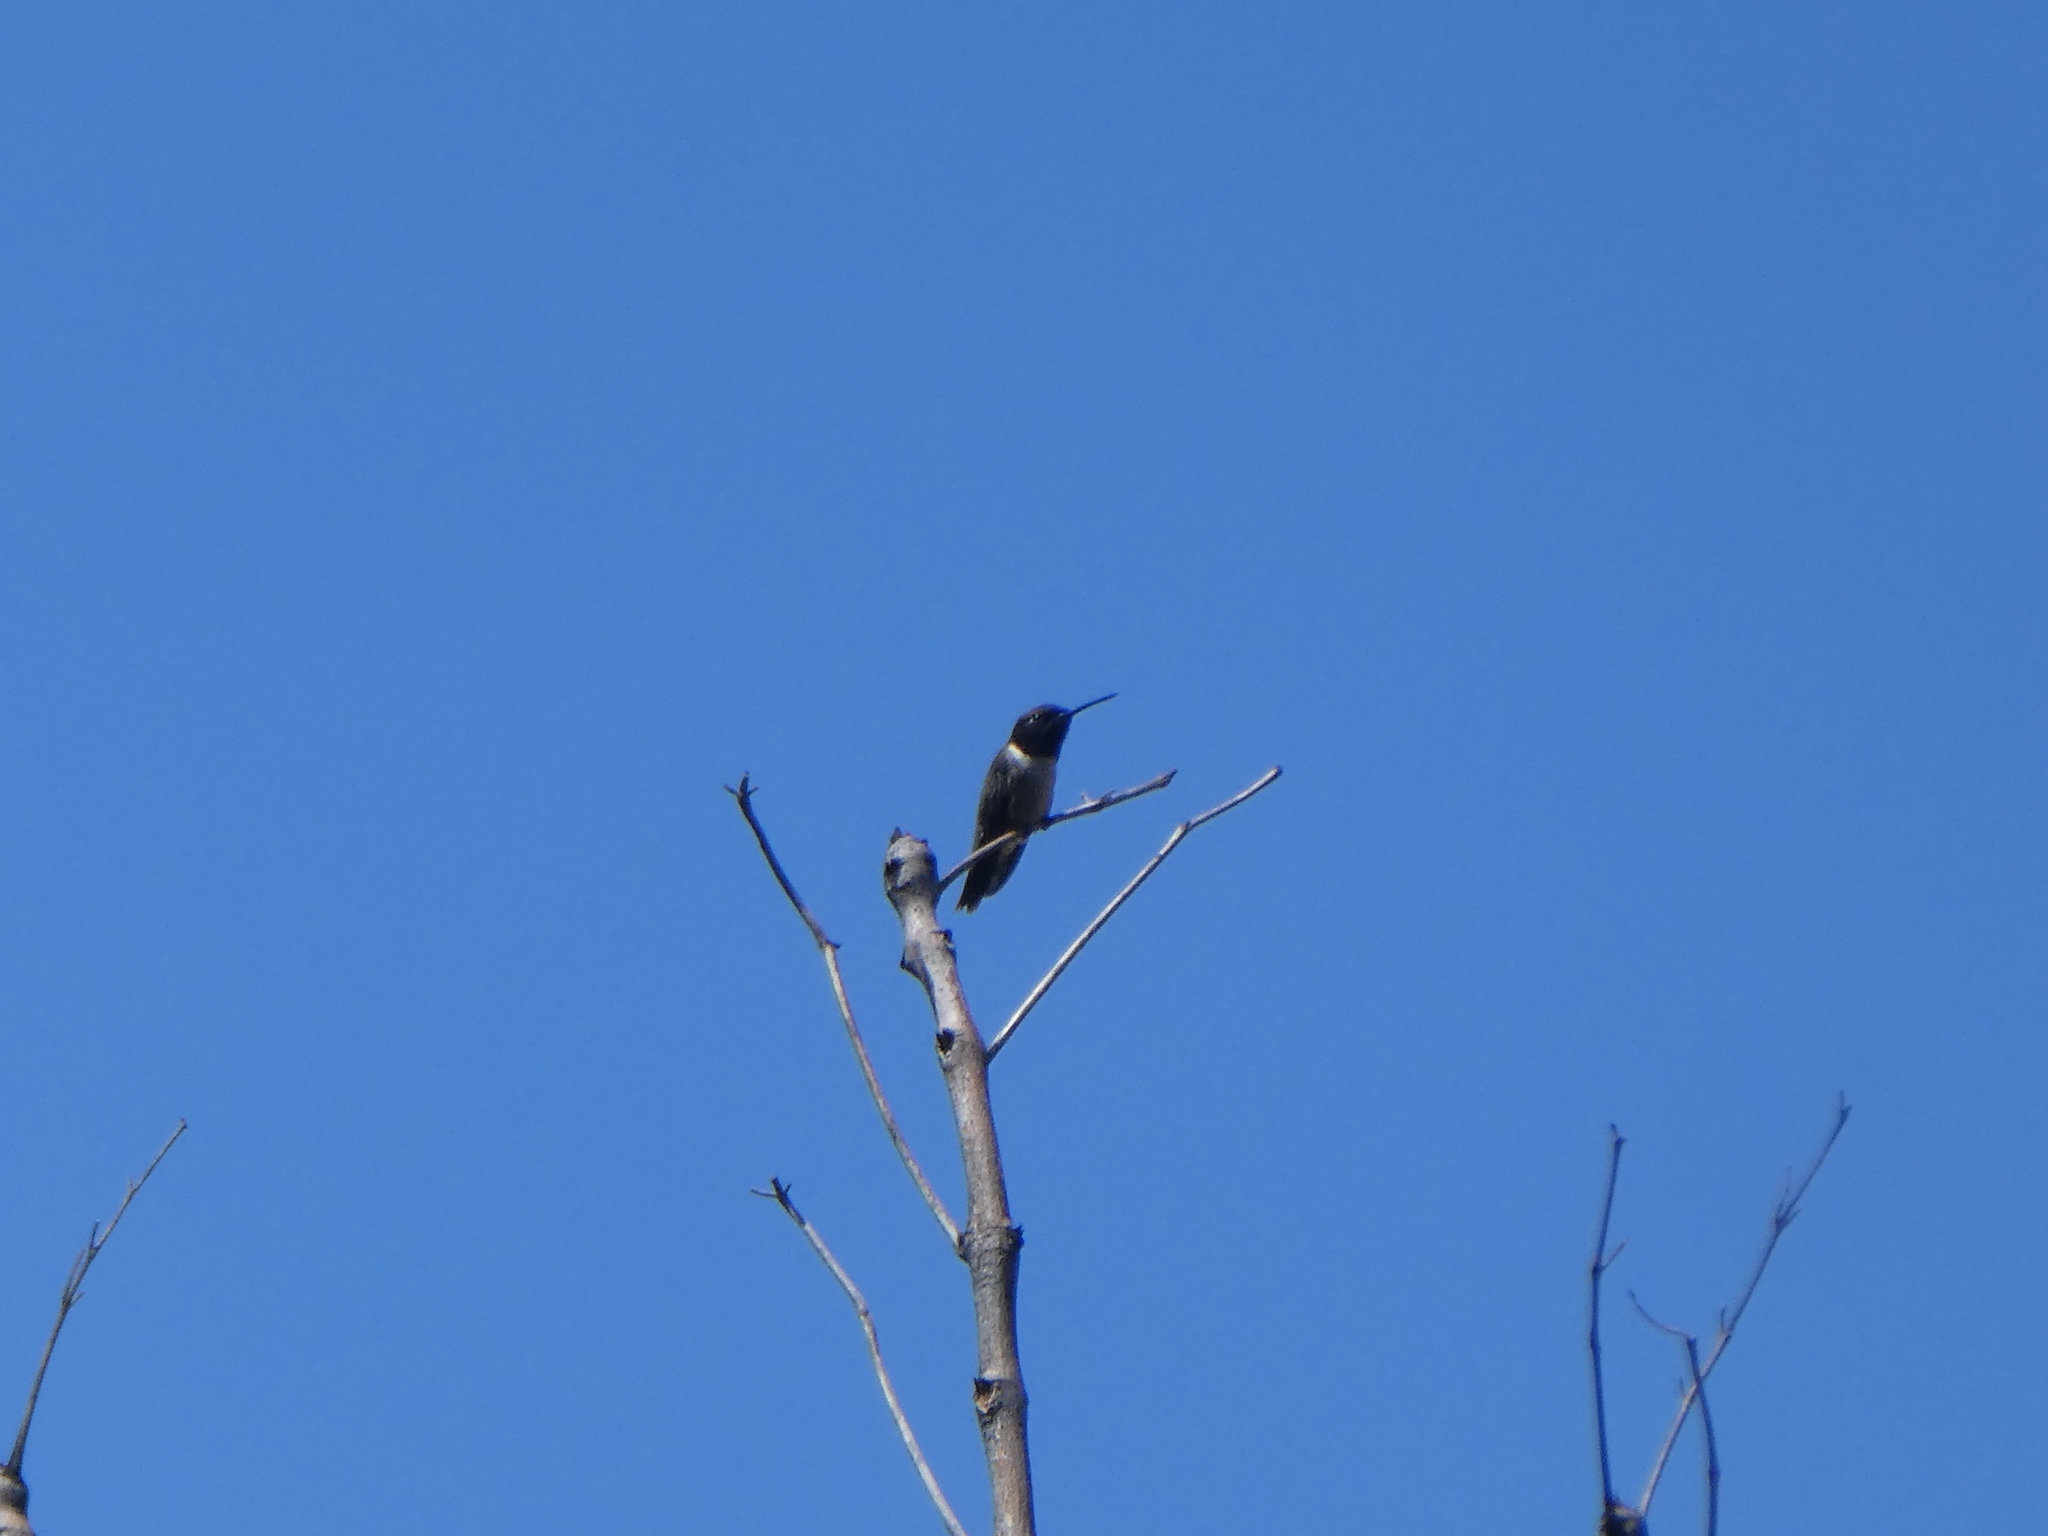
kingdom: Animalia
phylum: Chordata
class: Aves
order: Apodiformes
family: Trochilidae
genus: Archilochus
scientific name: Archilochus alexandri
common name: Black-chinned hummingbird
